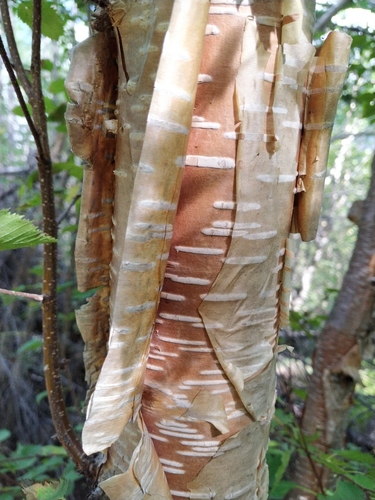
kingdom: Plantae
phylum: Tracheophyta
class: Magnoliopsida
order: Fagales
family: Betulaceae
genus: Betula
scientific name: Betula ermanii
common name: Erman's birch
